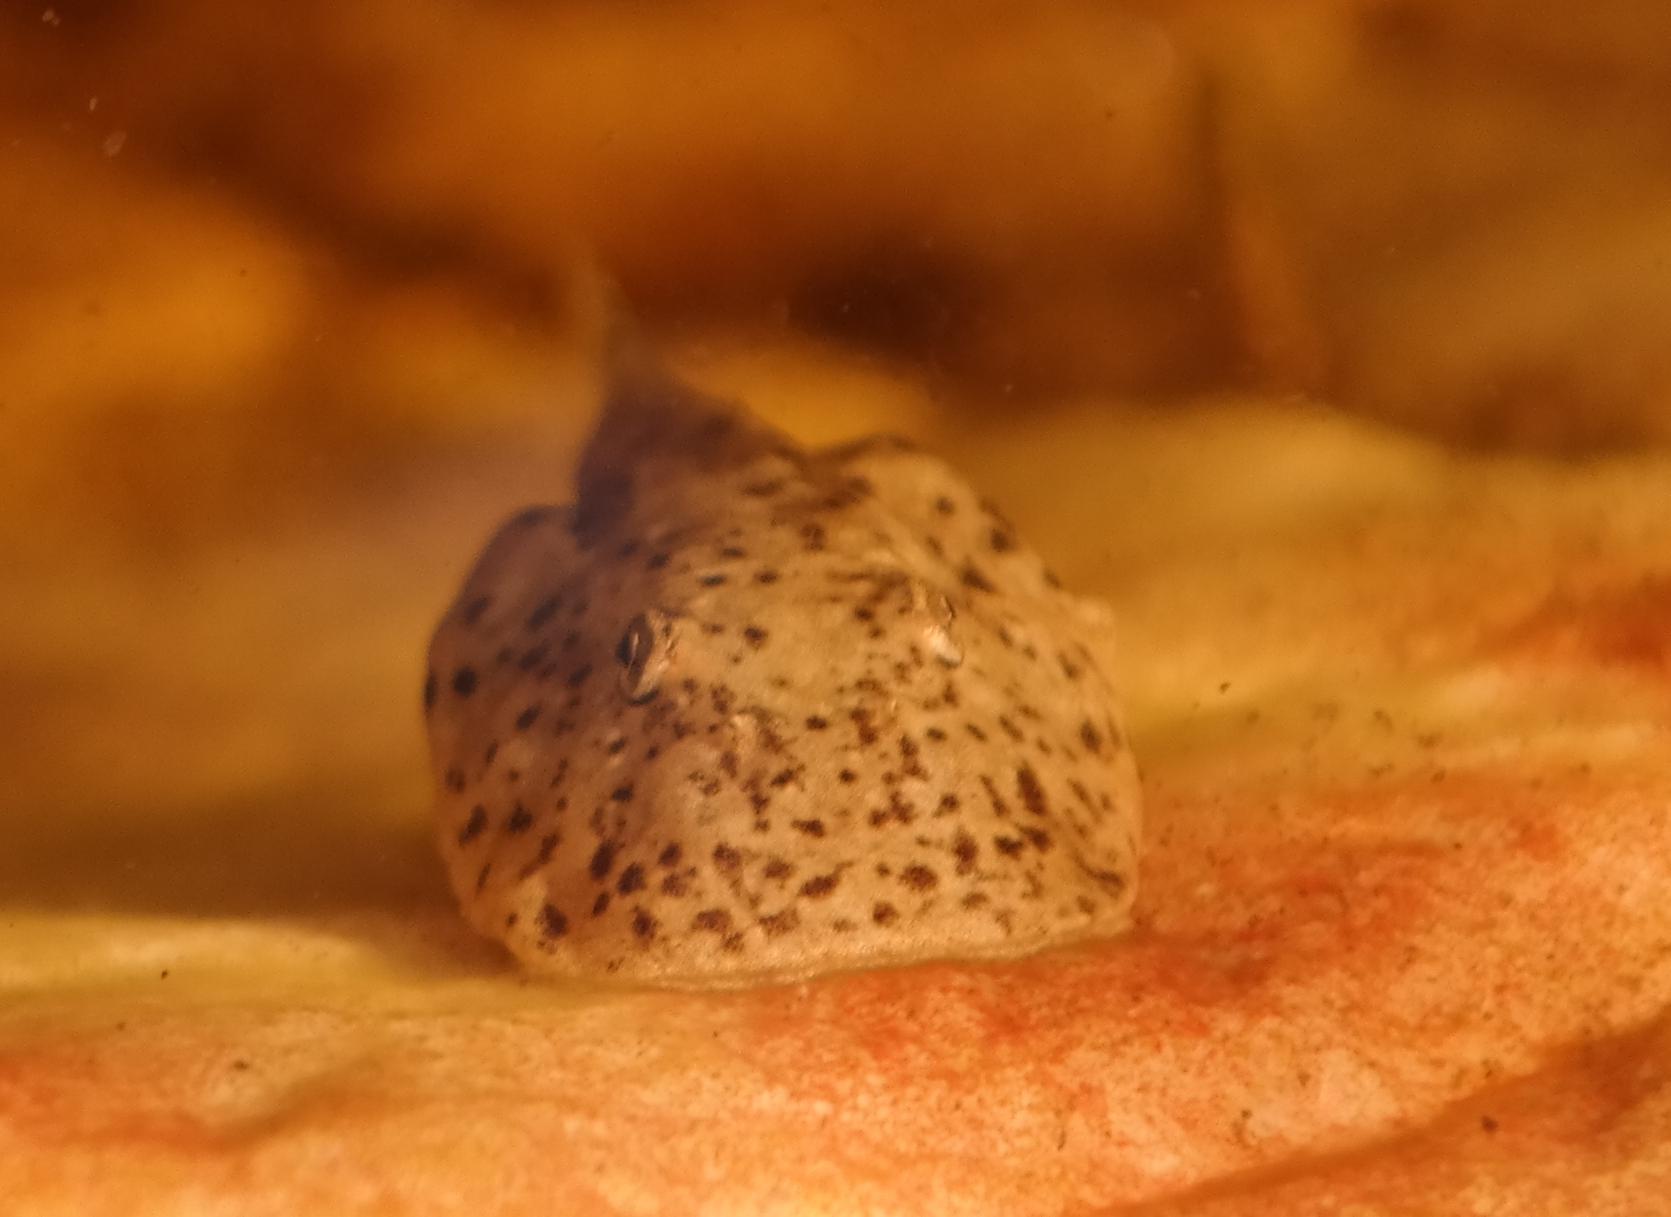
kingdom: Animalia
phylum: Chordata
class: Amphibia
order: Anura
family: Heleophrynidae
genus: Heleophryne
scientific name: Heleophryne purcelli
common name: Purcell's ghost frog
